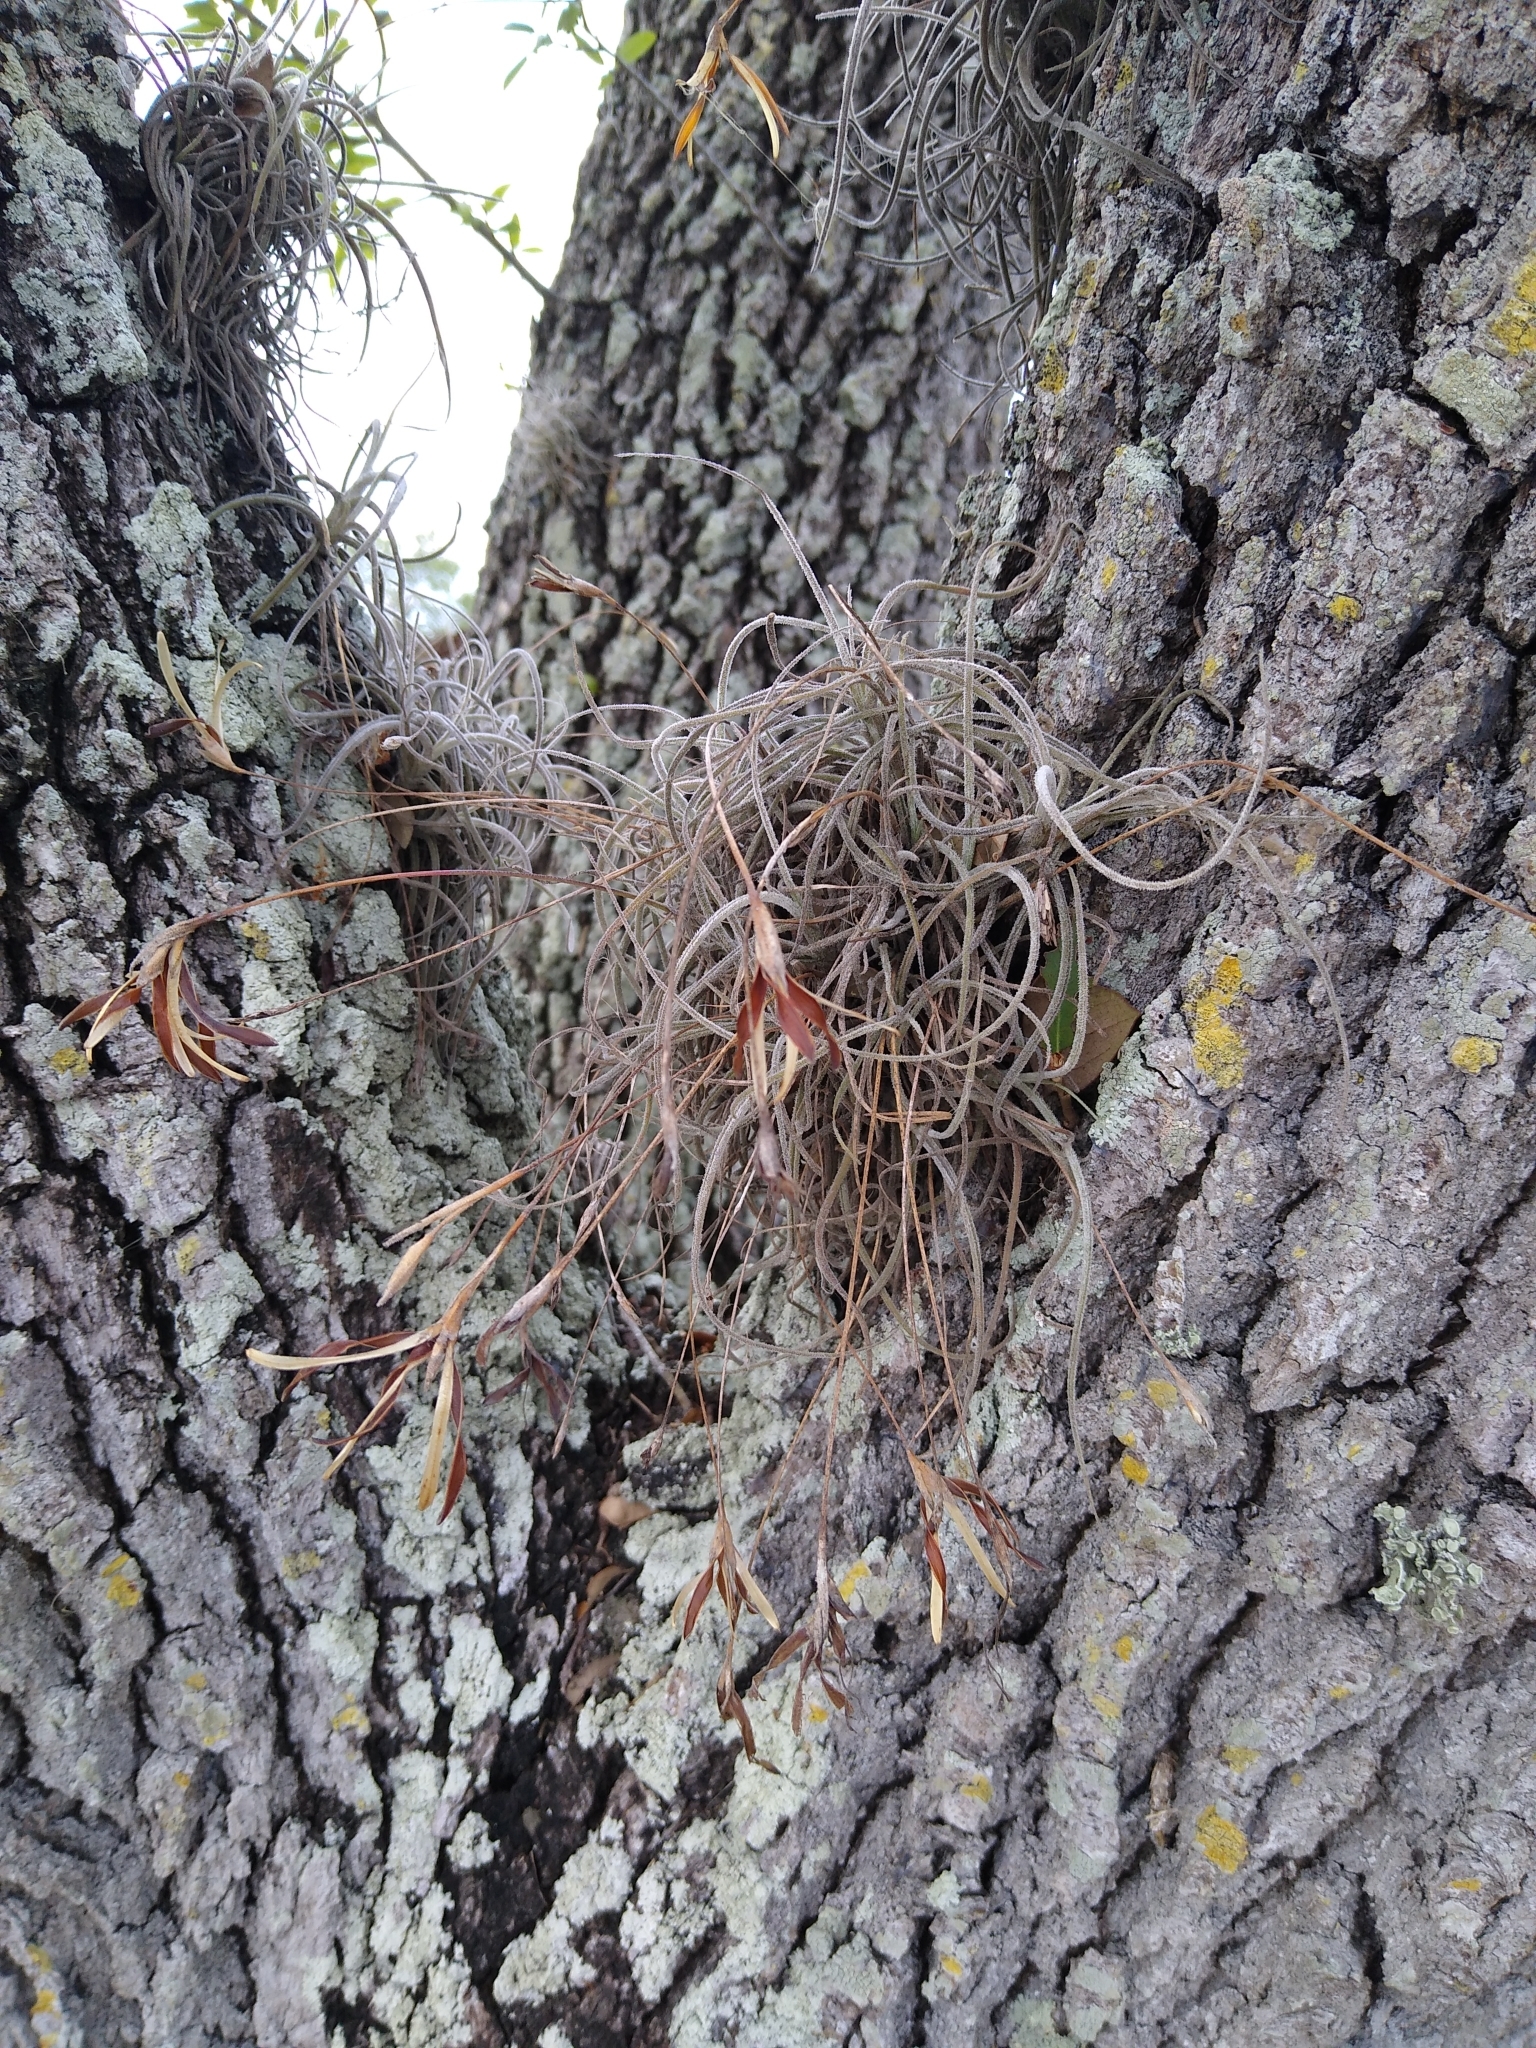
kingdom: Plantae
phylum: Tracheophyta
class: Liliopsida
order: Poales
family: Bromeliaceae
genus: Tillandsia
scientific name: Tillandsia recurvata
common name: Small ballmoss
